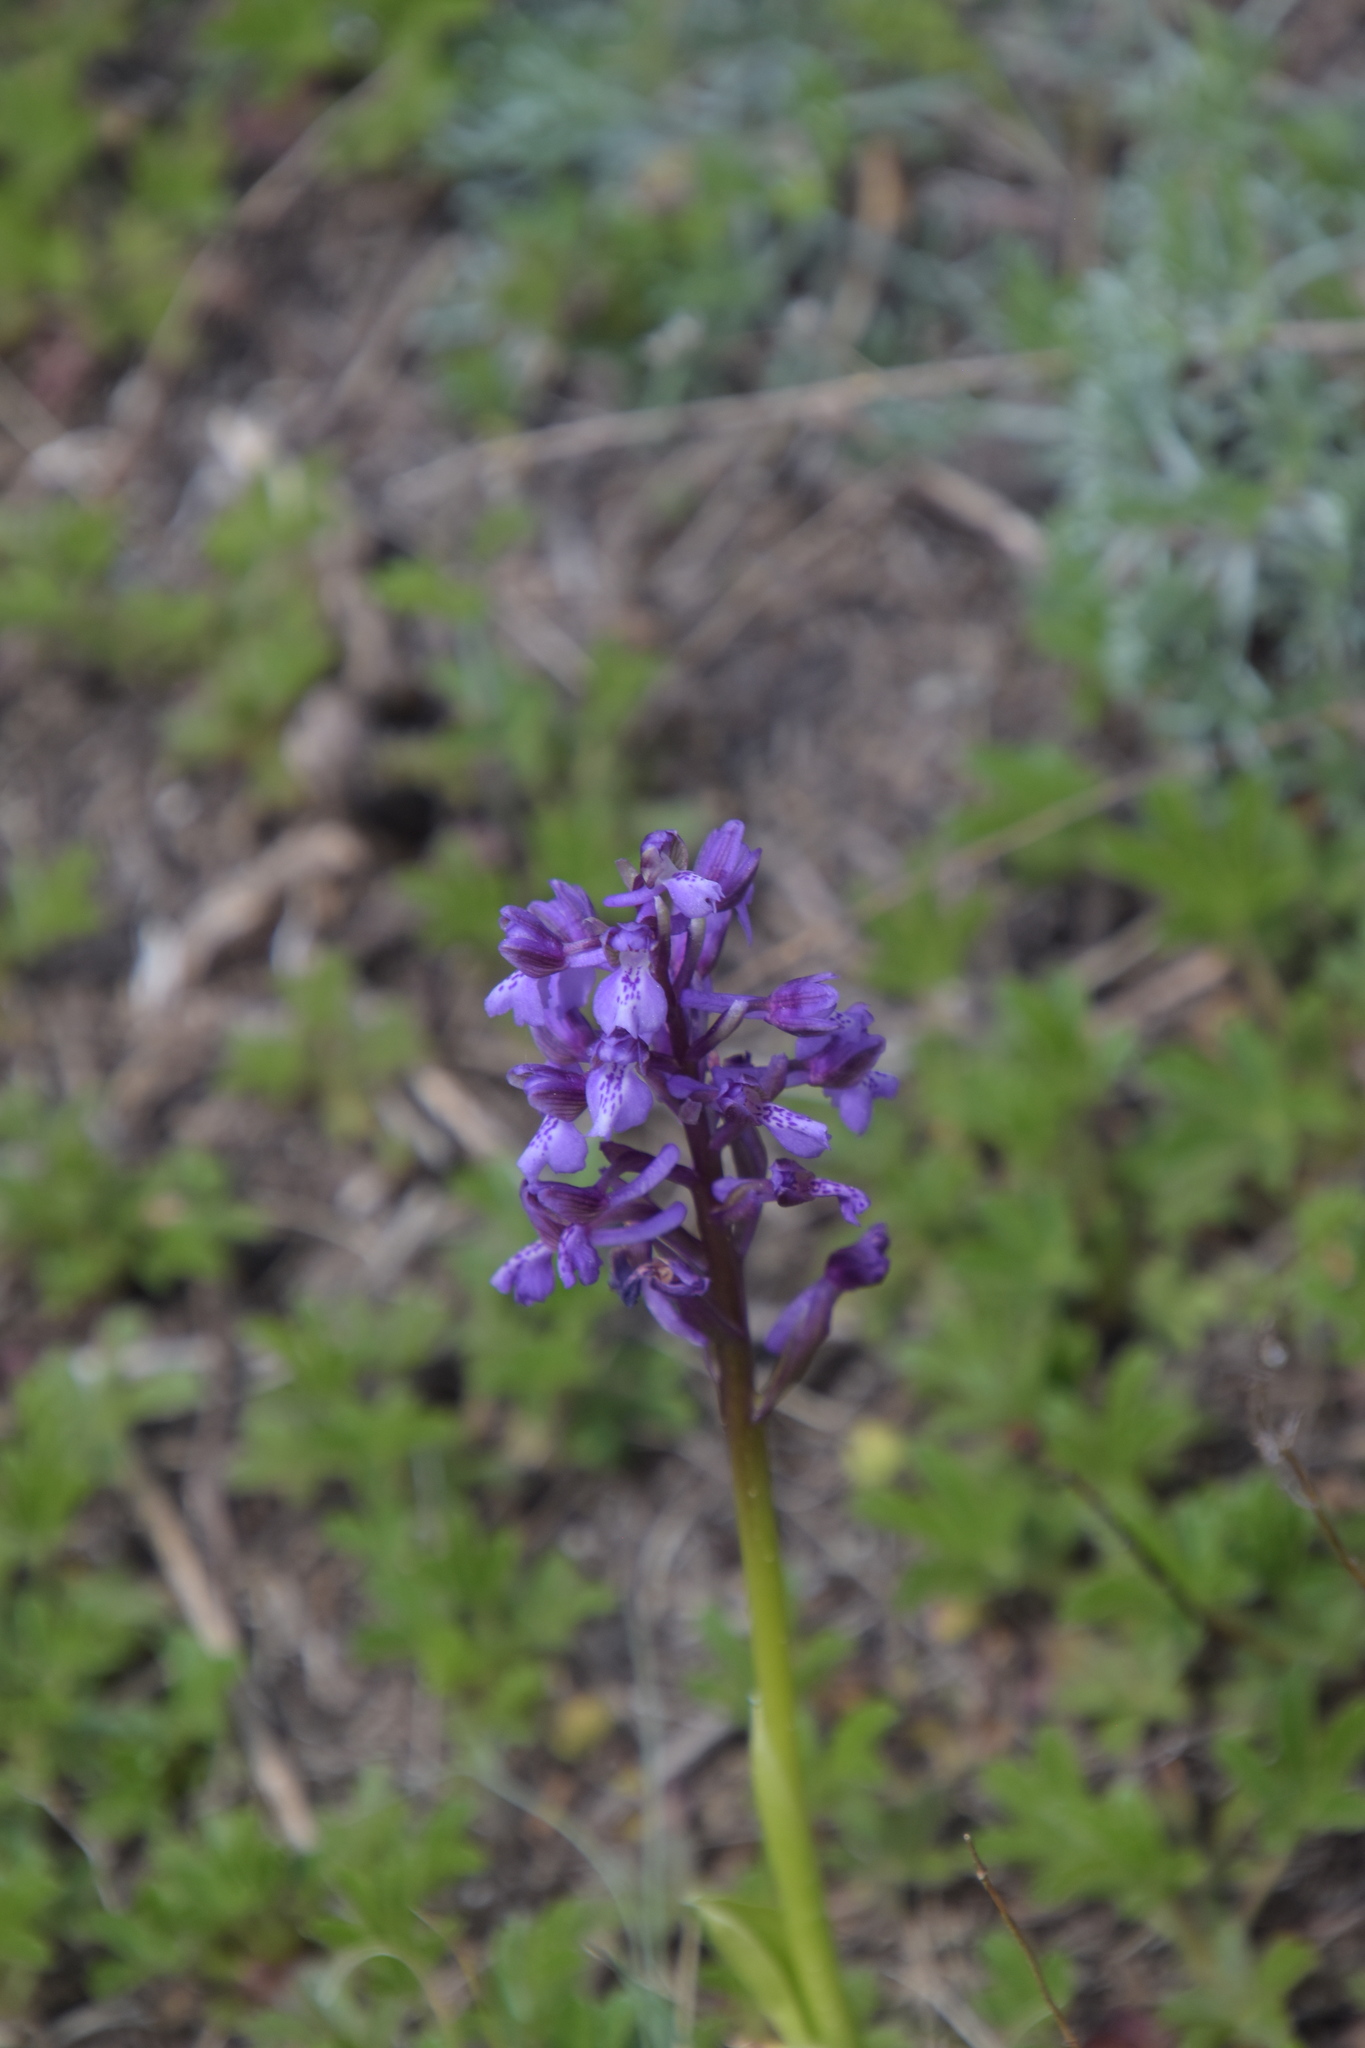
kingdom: Plantae
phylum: Tracheophyta
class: Liliopsida
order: Asparagales
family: Orchidaceae
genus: Anacamptis
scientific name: Anacamptis morio
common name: Green-winged orchid
